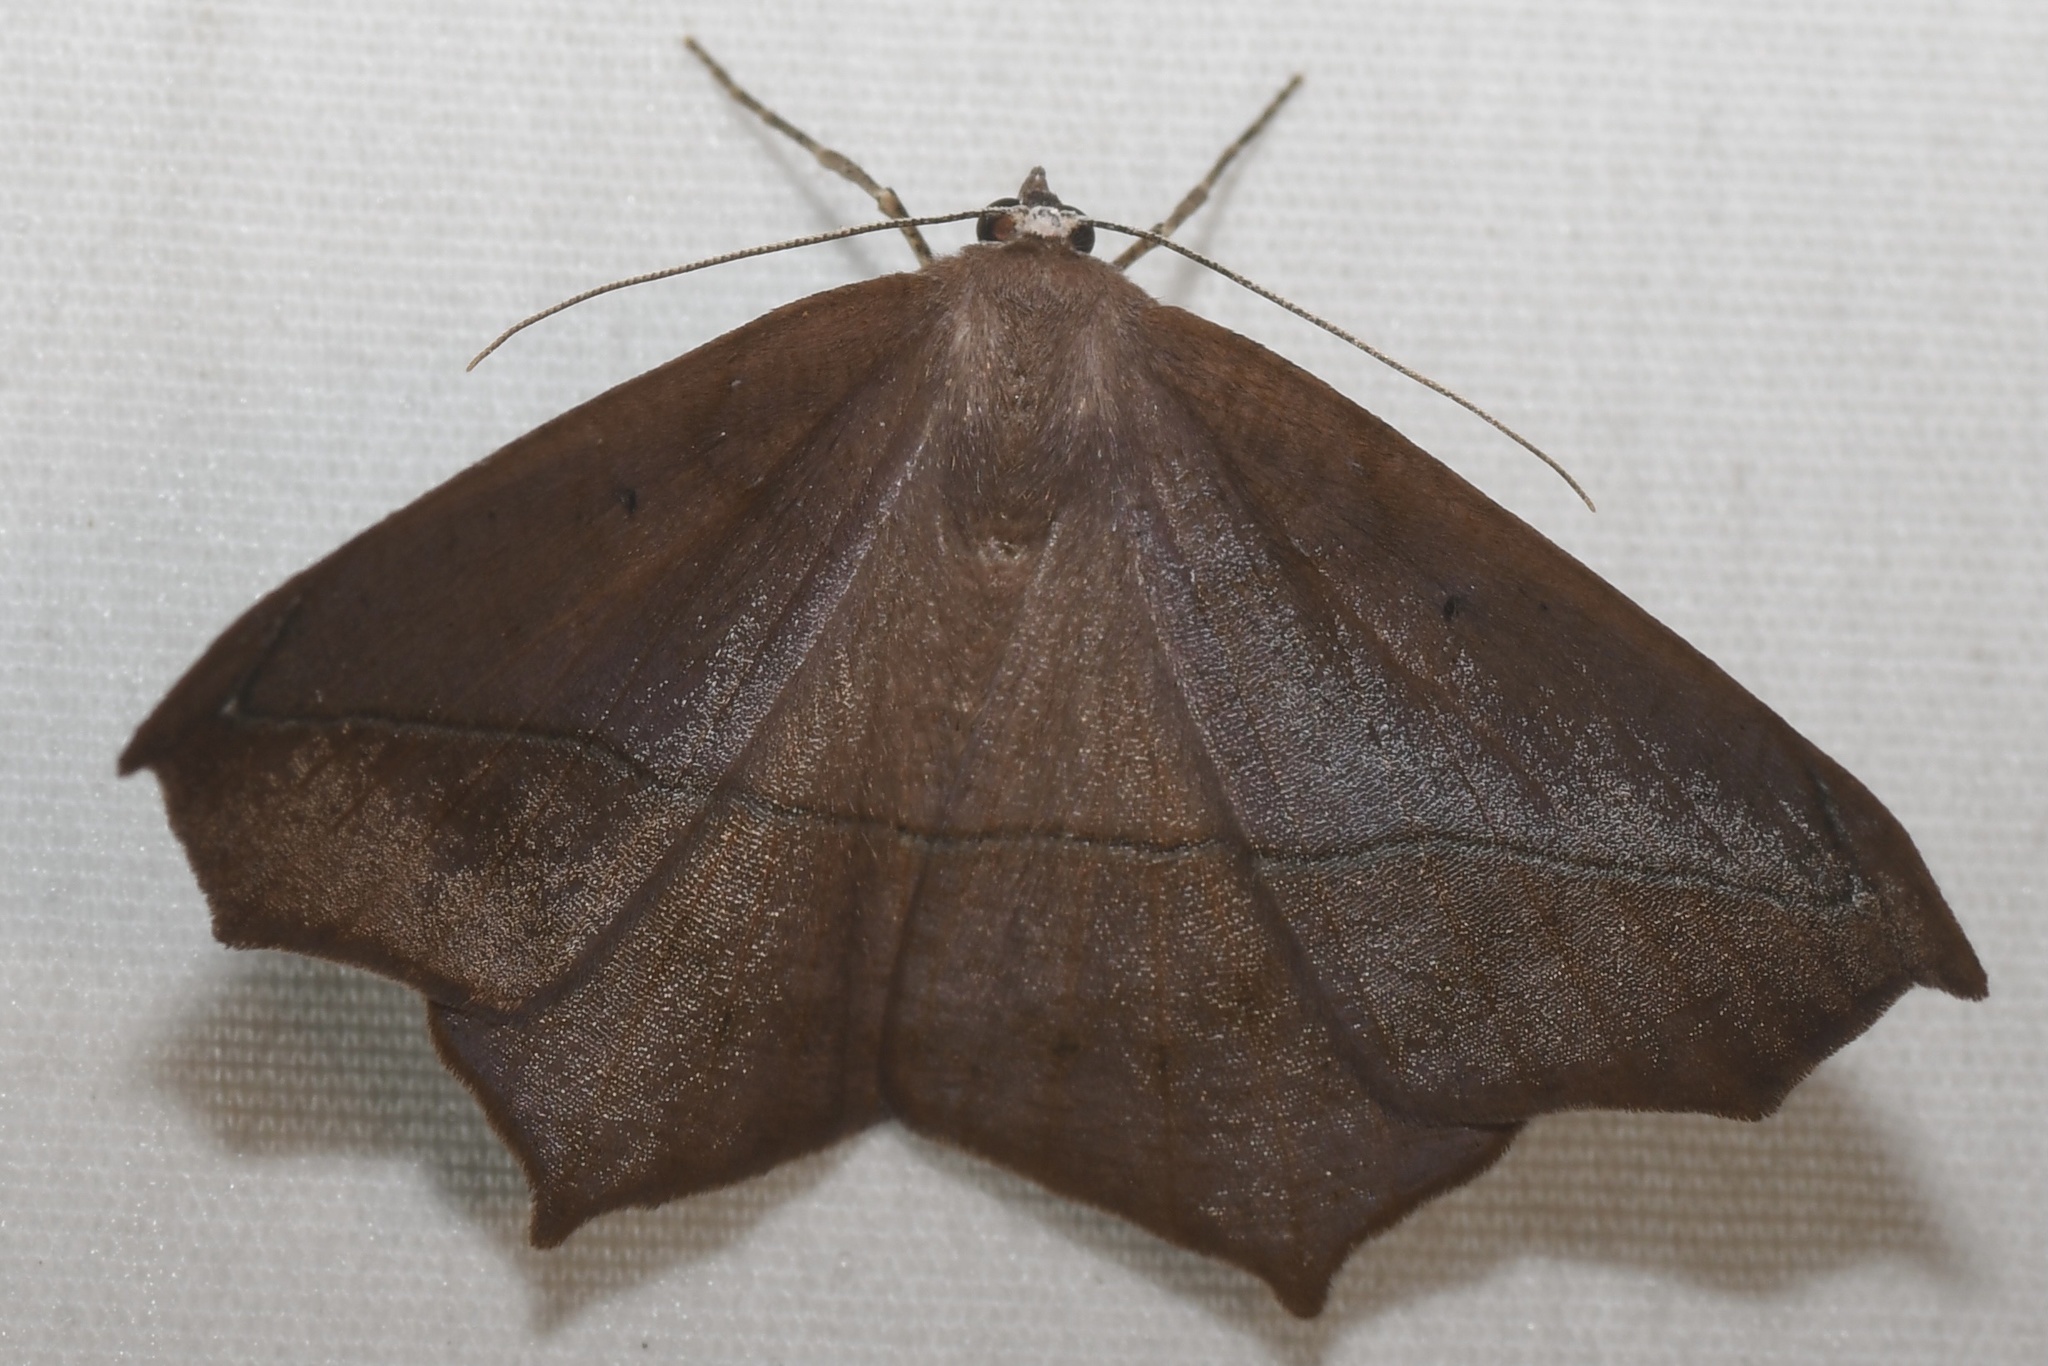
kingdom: Animalia
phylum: Arthropoda
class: Insecta
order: Lepidoptera
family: Geometridae
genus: Prochoerodes
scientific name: Prochoerodes lineola
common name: Large maple spanworm
